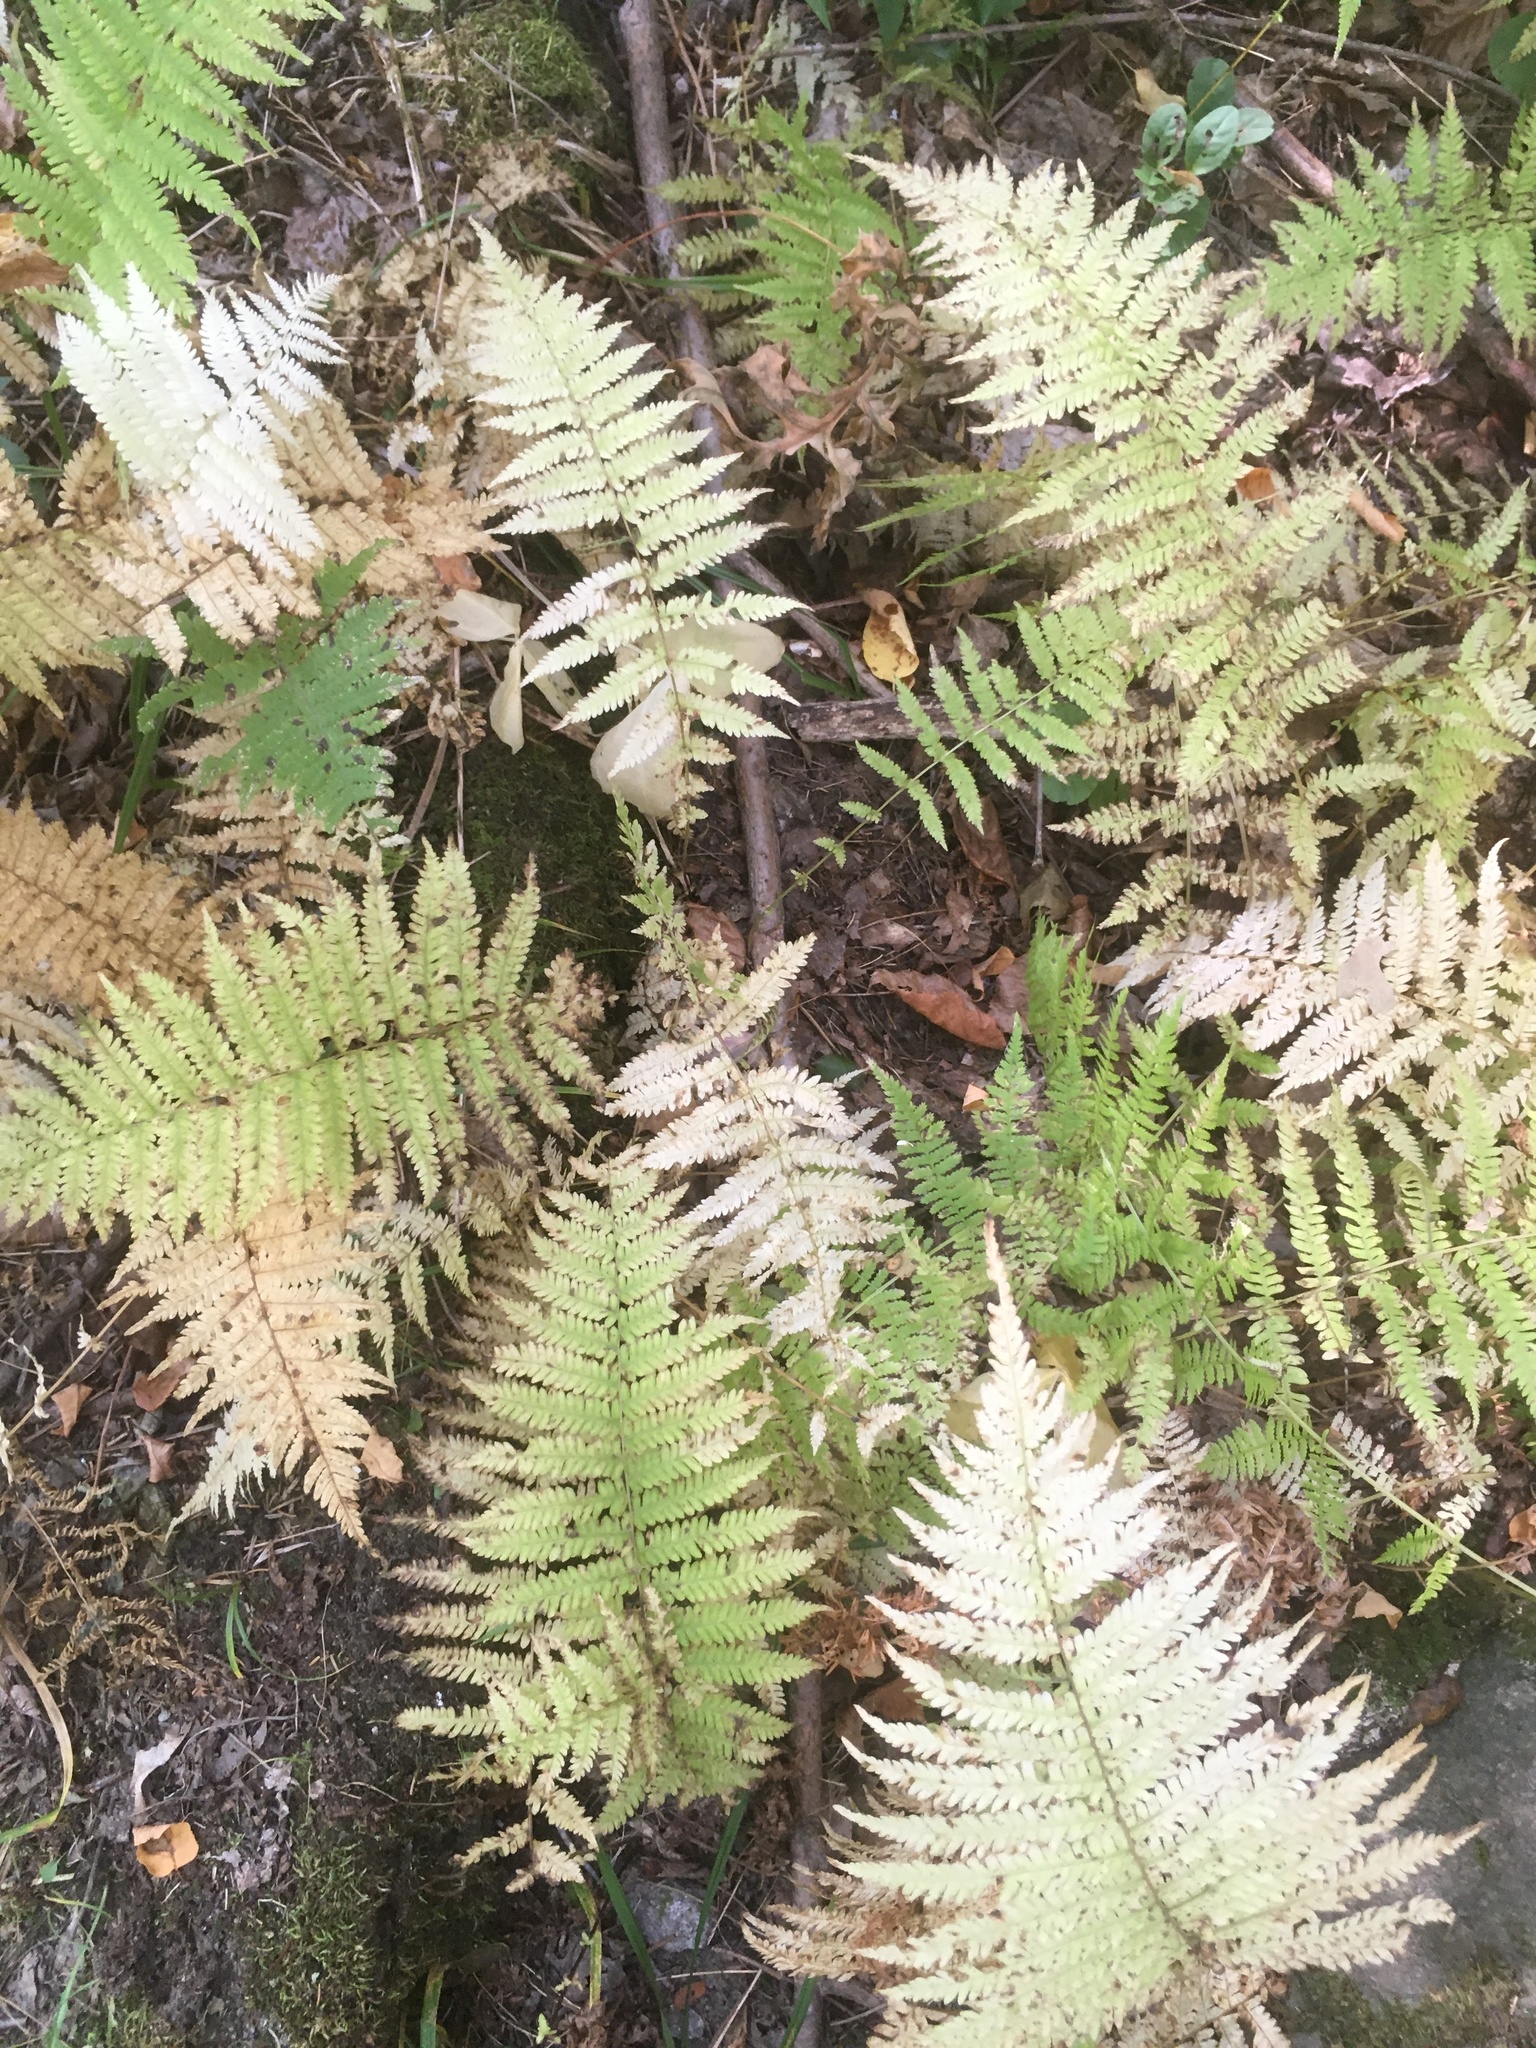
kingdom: Plantae
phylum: Tracheophyta
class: Polypodiopsida
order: Polypodiales
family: Thelypteridaceae
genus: Amauropelta
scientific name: Amauropelta noveboracensis
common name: New york fern
